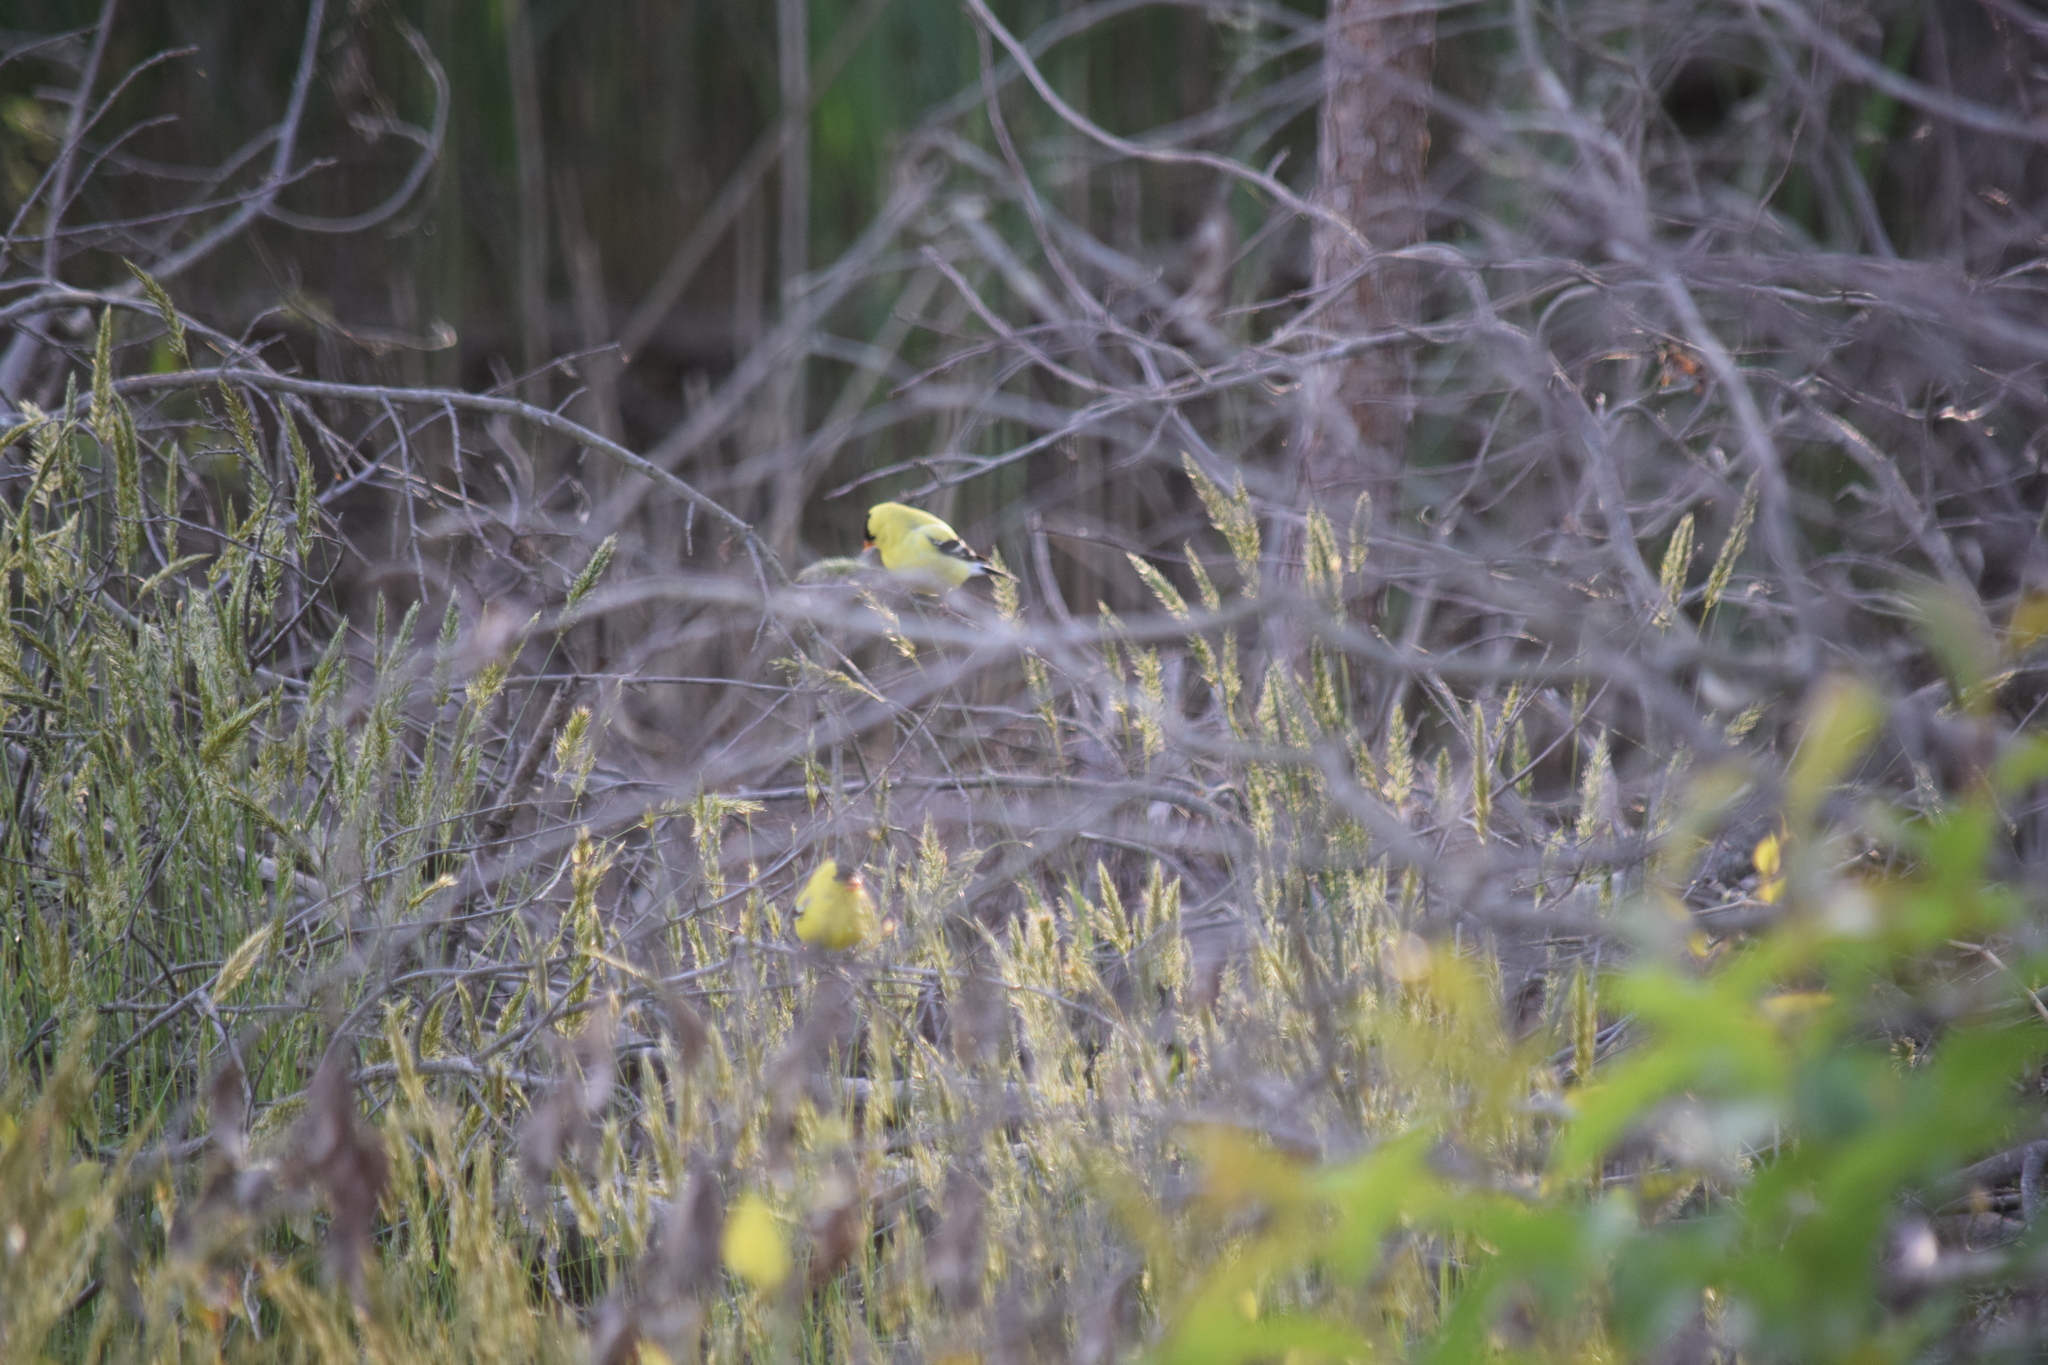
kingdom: Animalia
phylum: Chordata
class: Aves
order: Passeriformes
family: Fringillidae
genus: Spinus
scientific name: Spinus tristis
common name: American goldfinch
